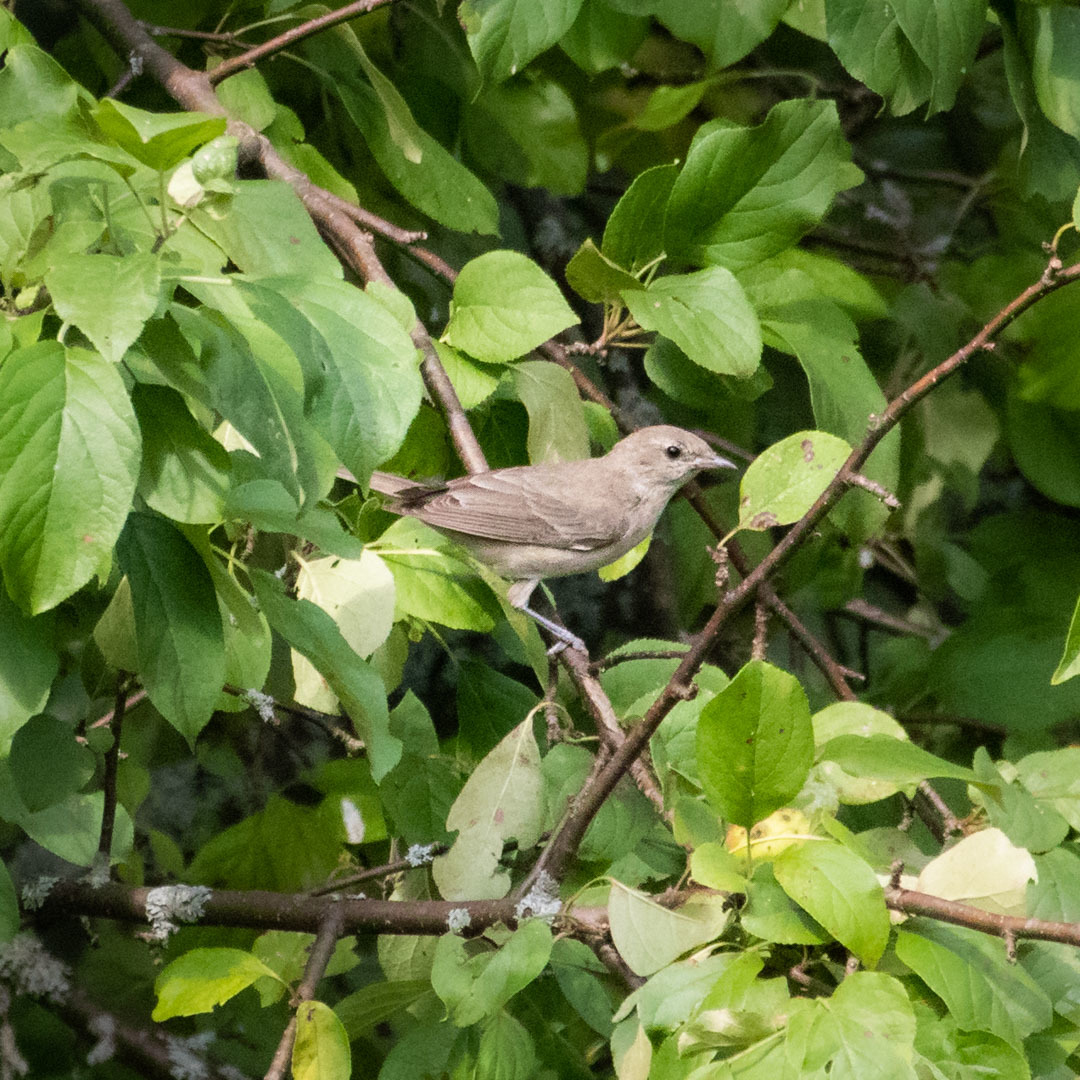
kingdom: Animalia
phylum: Chordata
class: Aves
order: Passeriformes
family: Sylviidae
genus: Sylvia
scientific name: Sylvia borin
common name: Garden warbler
